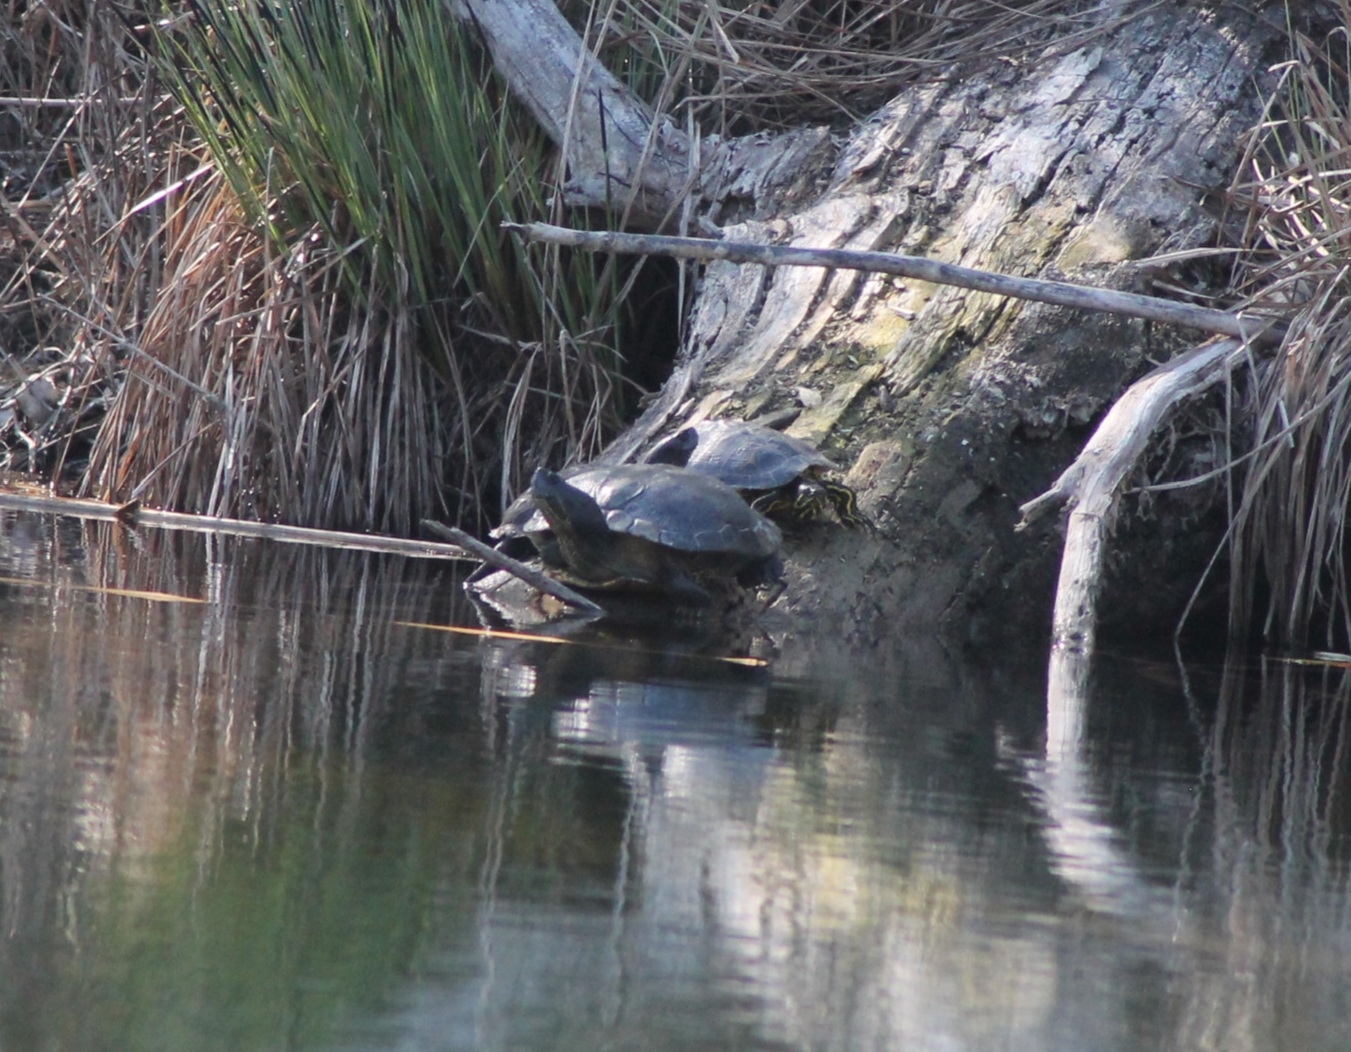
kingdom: Animalia
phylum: Chordata
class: Testudines
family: Emydidae
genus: Trachemys
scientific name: Trachemys scripta
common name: Slider
